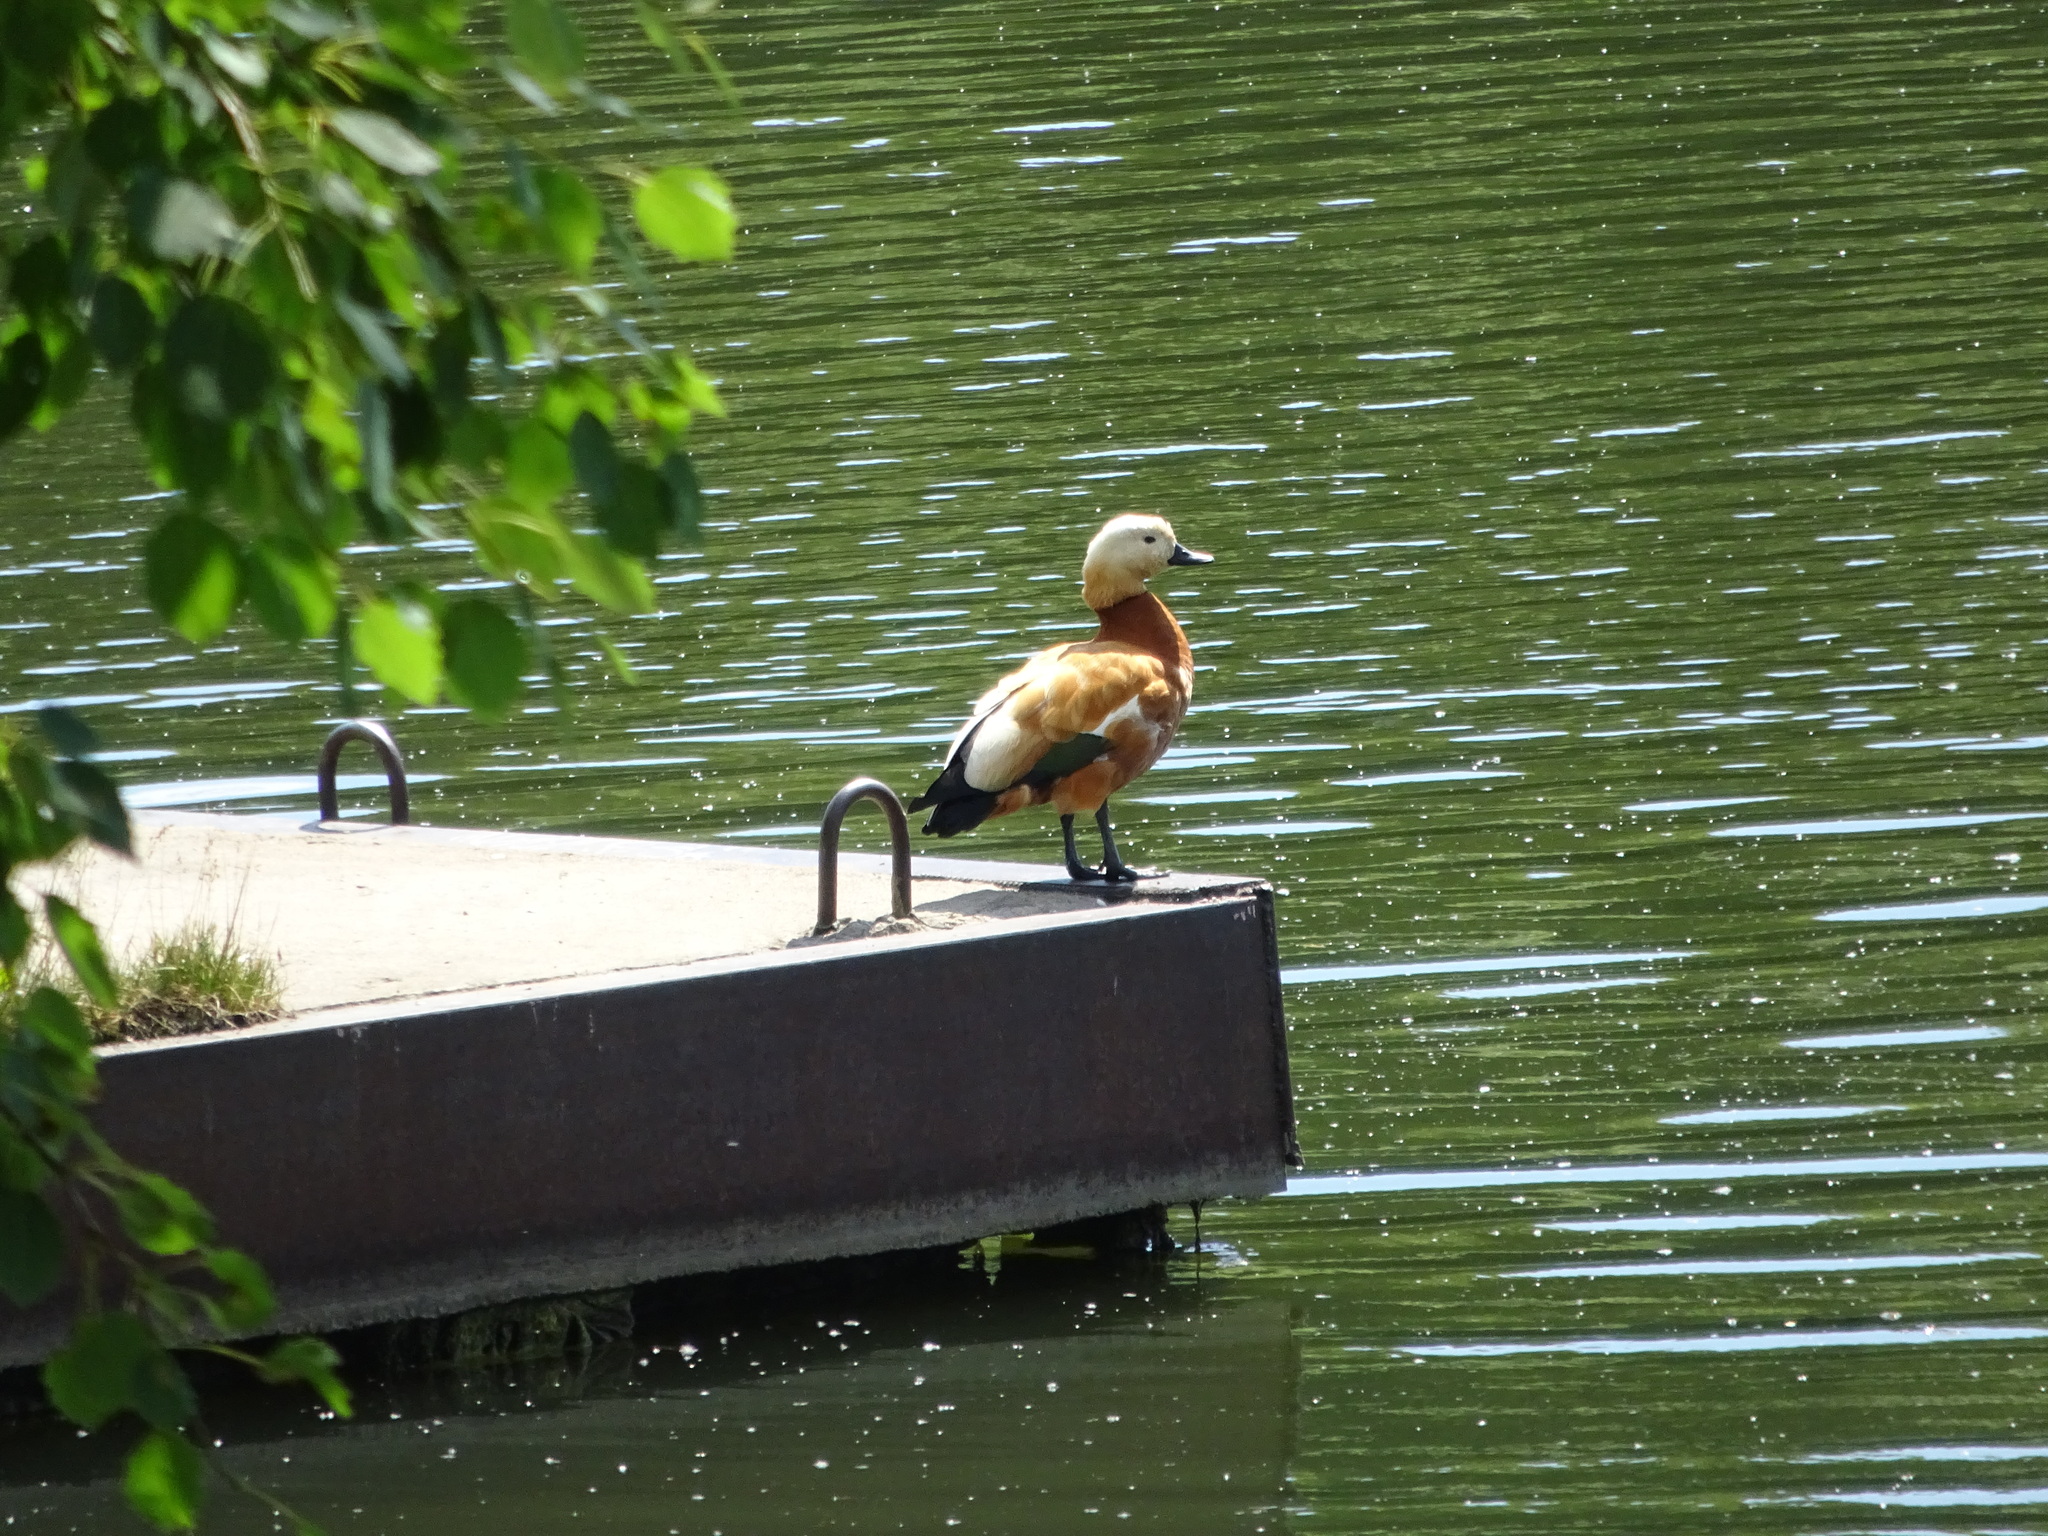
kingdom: Animalia
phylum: Chordata
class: Aves
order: Anseriformes
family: Anatidae
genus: Tadorna
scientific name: Tadorna ferruginea
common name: Ruddy shelduck
